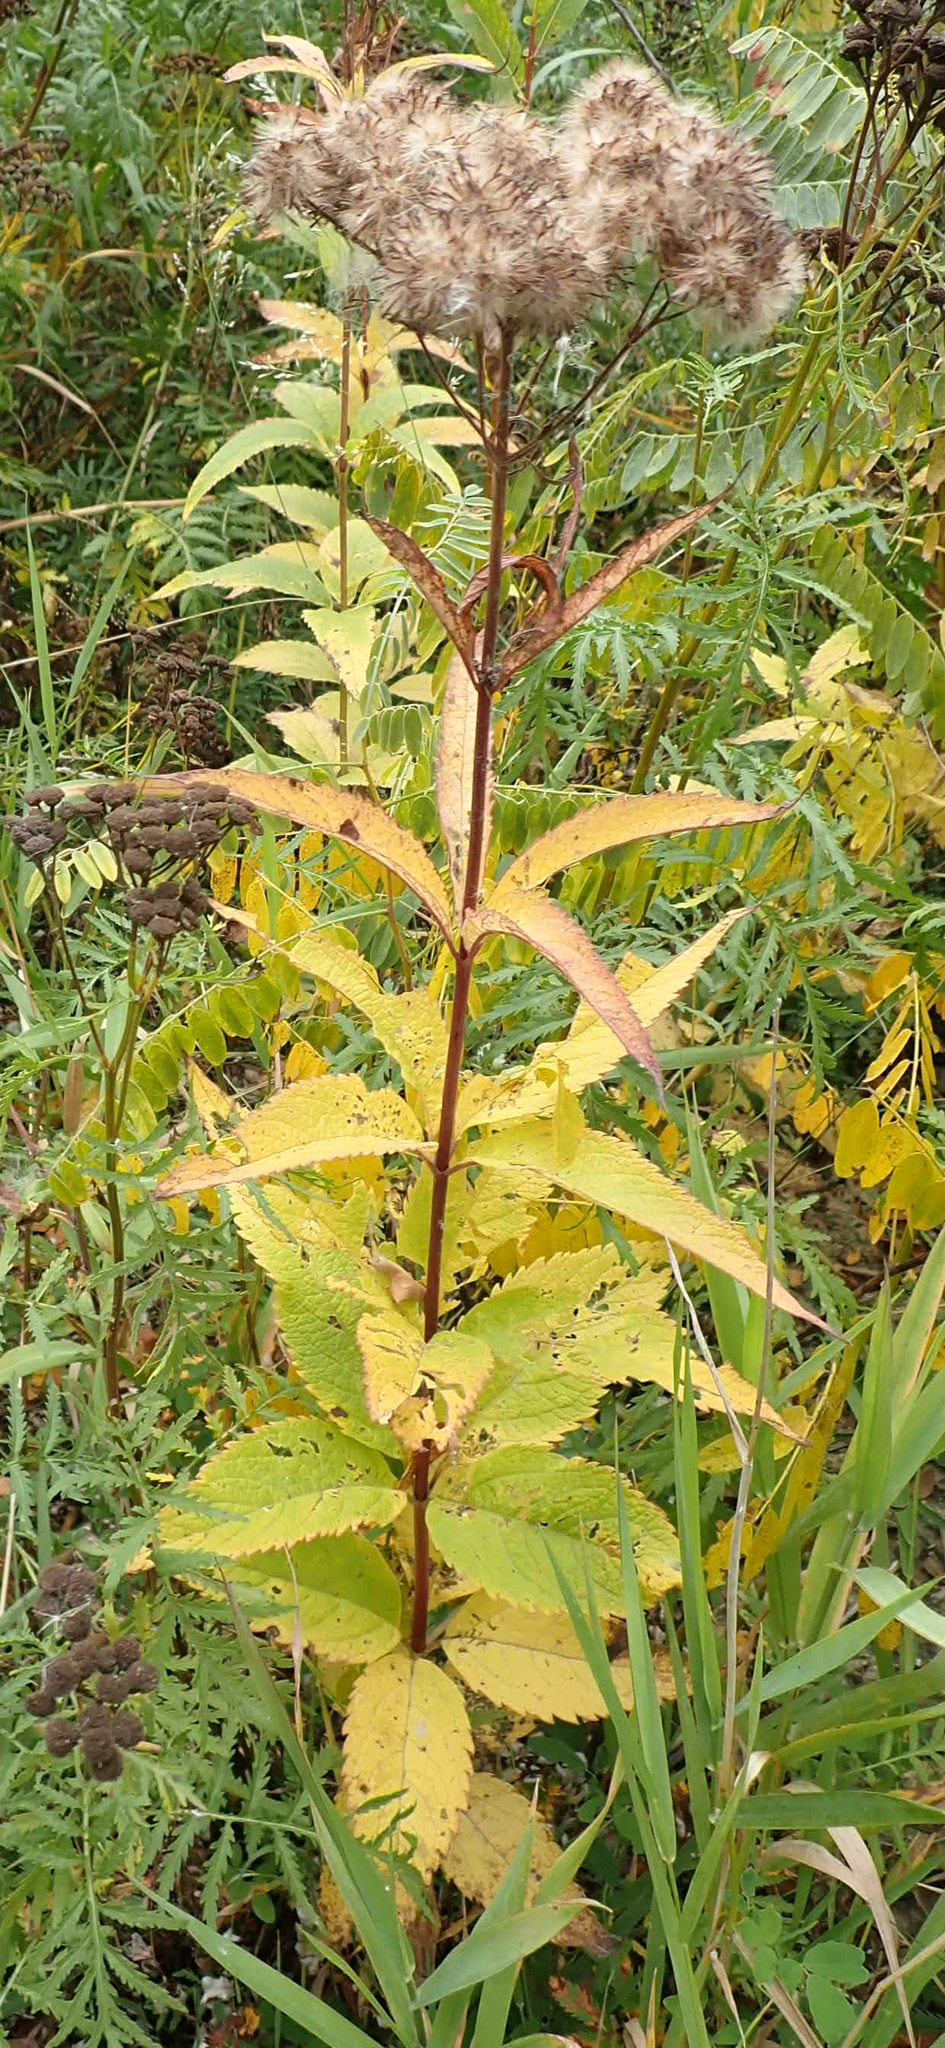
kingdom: Plantae
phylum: Tracheophyta
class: Magnoliopsida
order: Asterales
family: Asteraceae
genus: Eutrochium
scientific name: Eutrochium maculatum
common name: Spotted joe pye weed
